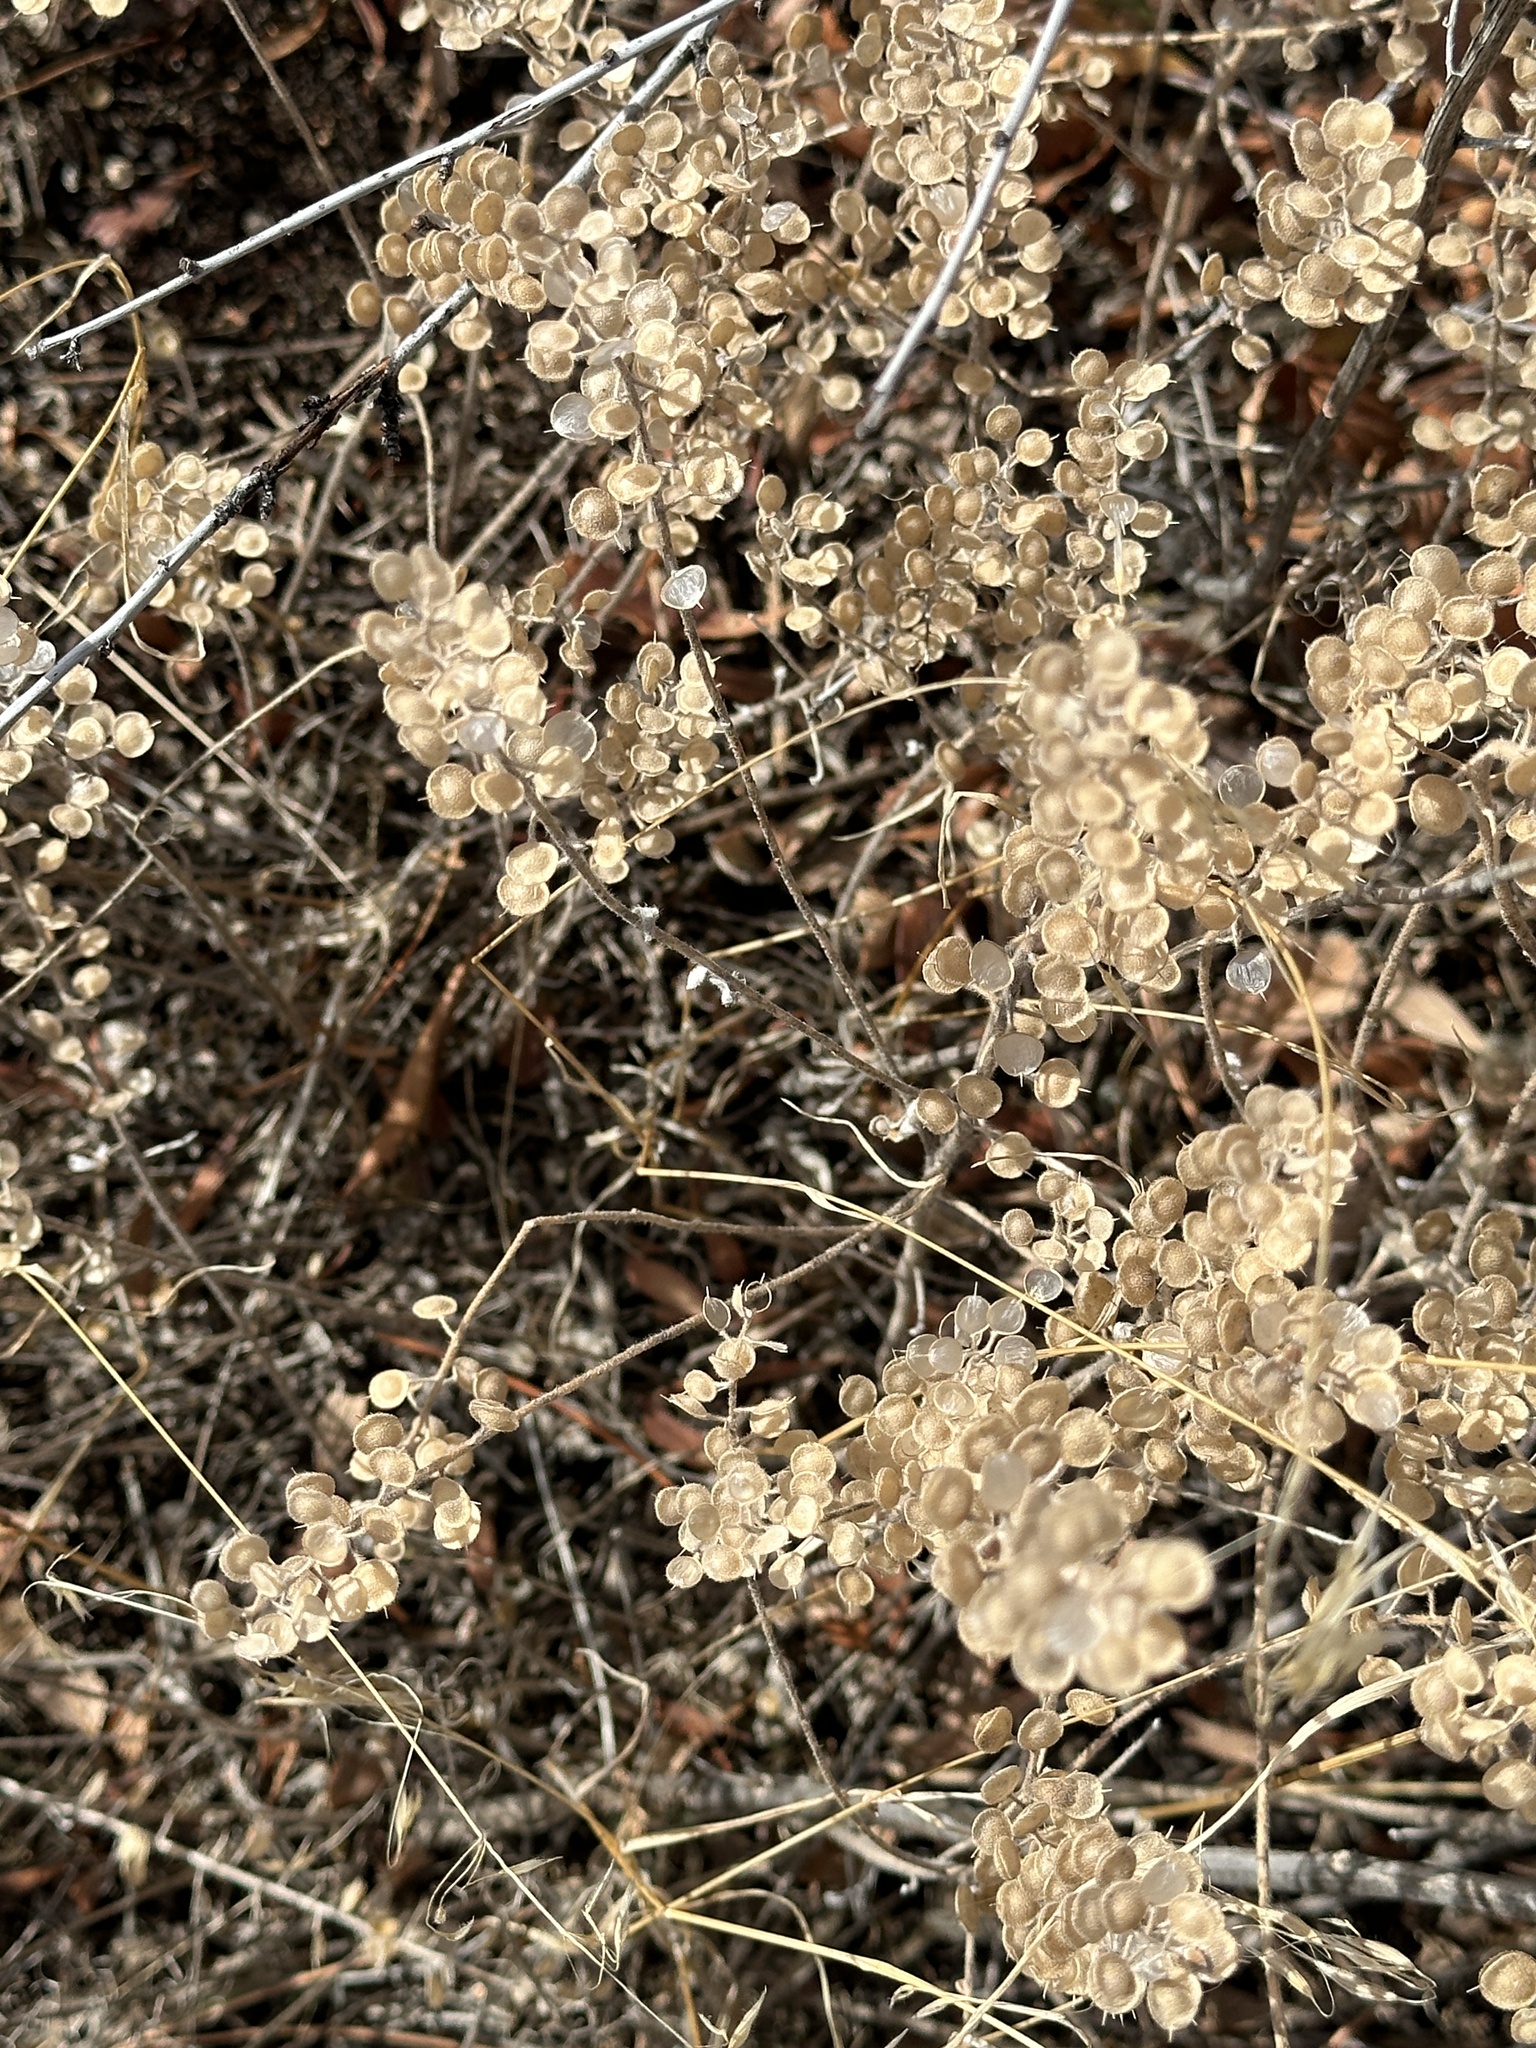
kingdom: Plantae
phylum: Tracheophyta
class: Magnoliopsida
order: Brassicales
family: Brassicaceae
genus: Alyssum
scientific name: Alyssum simplex
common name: Alyssum
